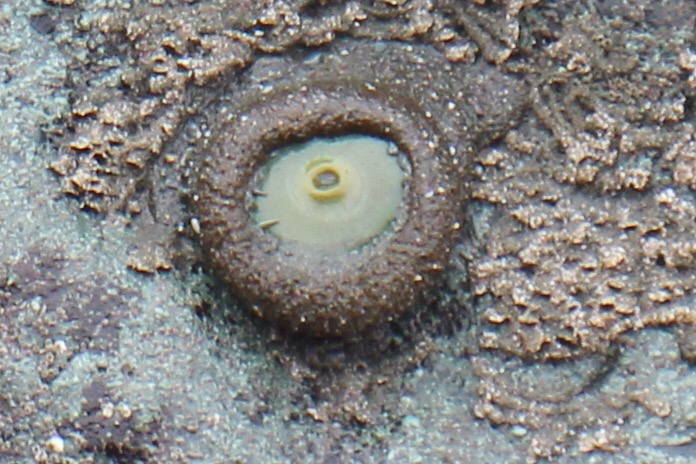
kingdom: Animalia
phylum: Cnidaria
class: Anthozoa
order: Actiniaria
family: Actiniidae
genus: Anthopleura
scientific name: Anthopleura xanthogrammica
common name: Giant green anemone
